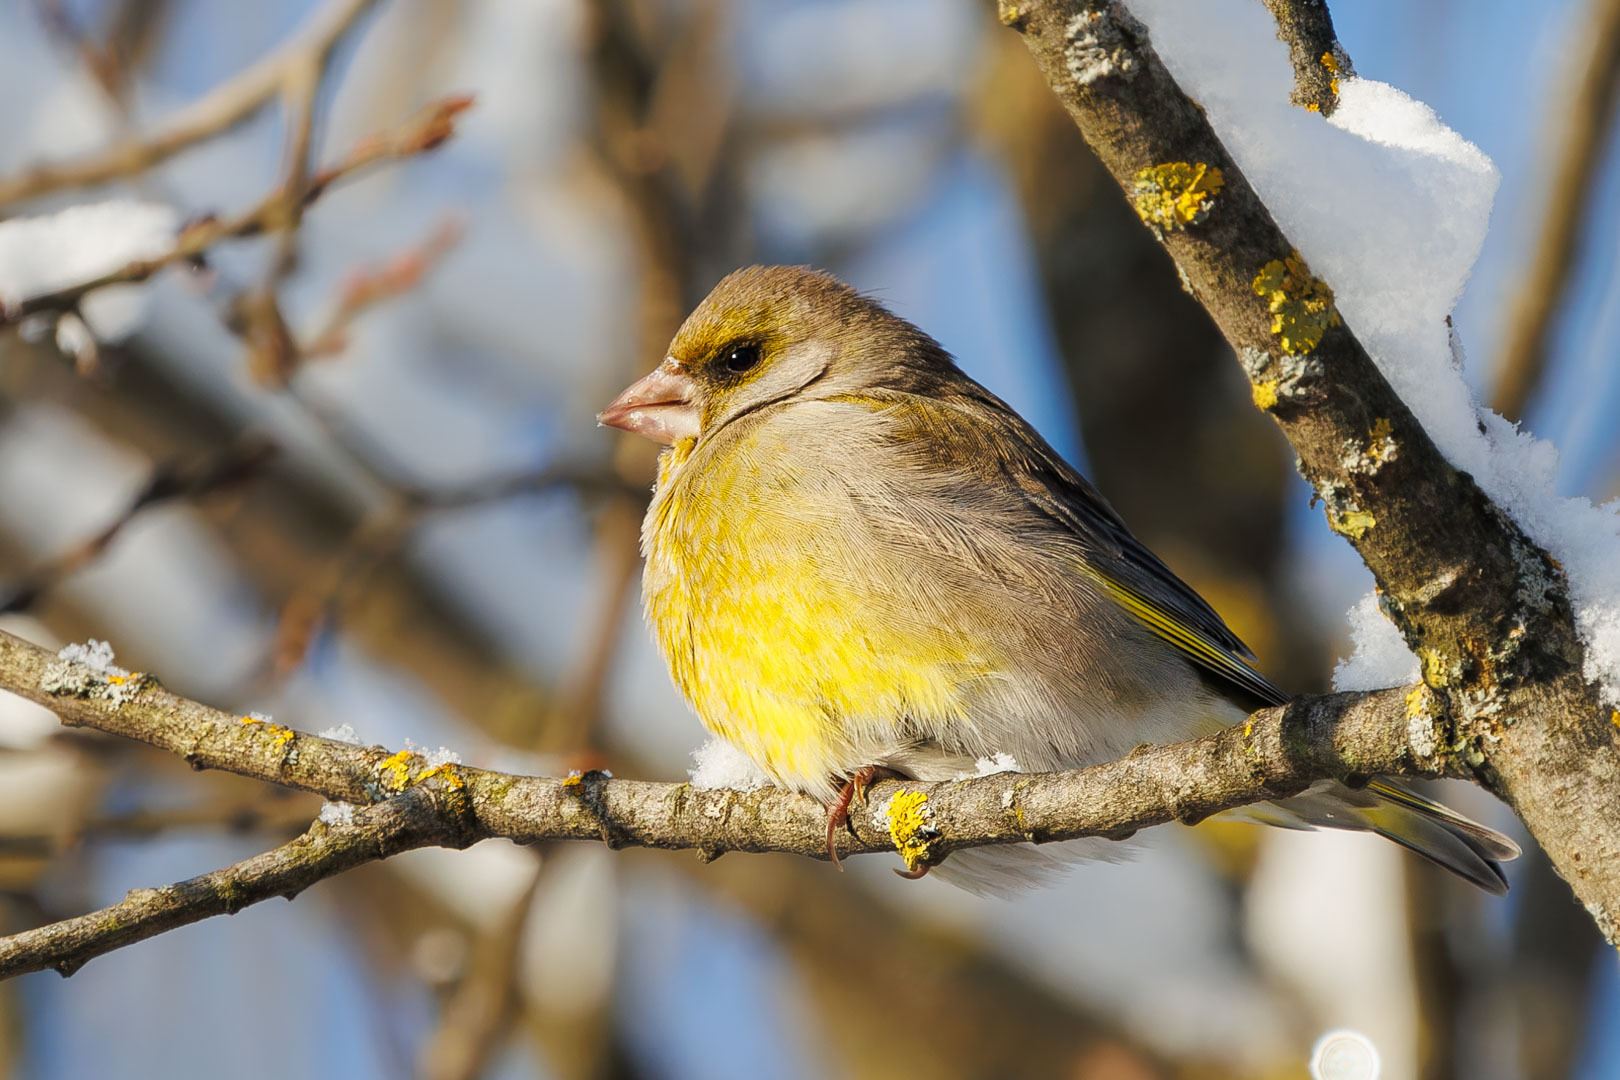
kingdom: Plantae
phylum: Tracheophyta
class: Liliopsida
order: Poales
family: Poaceae
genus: Chloris
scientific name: Chloris chloris
